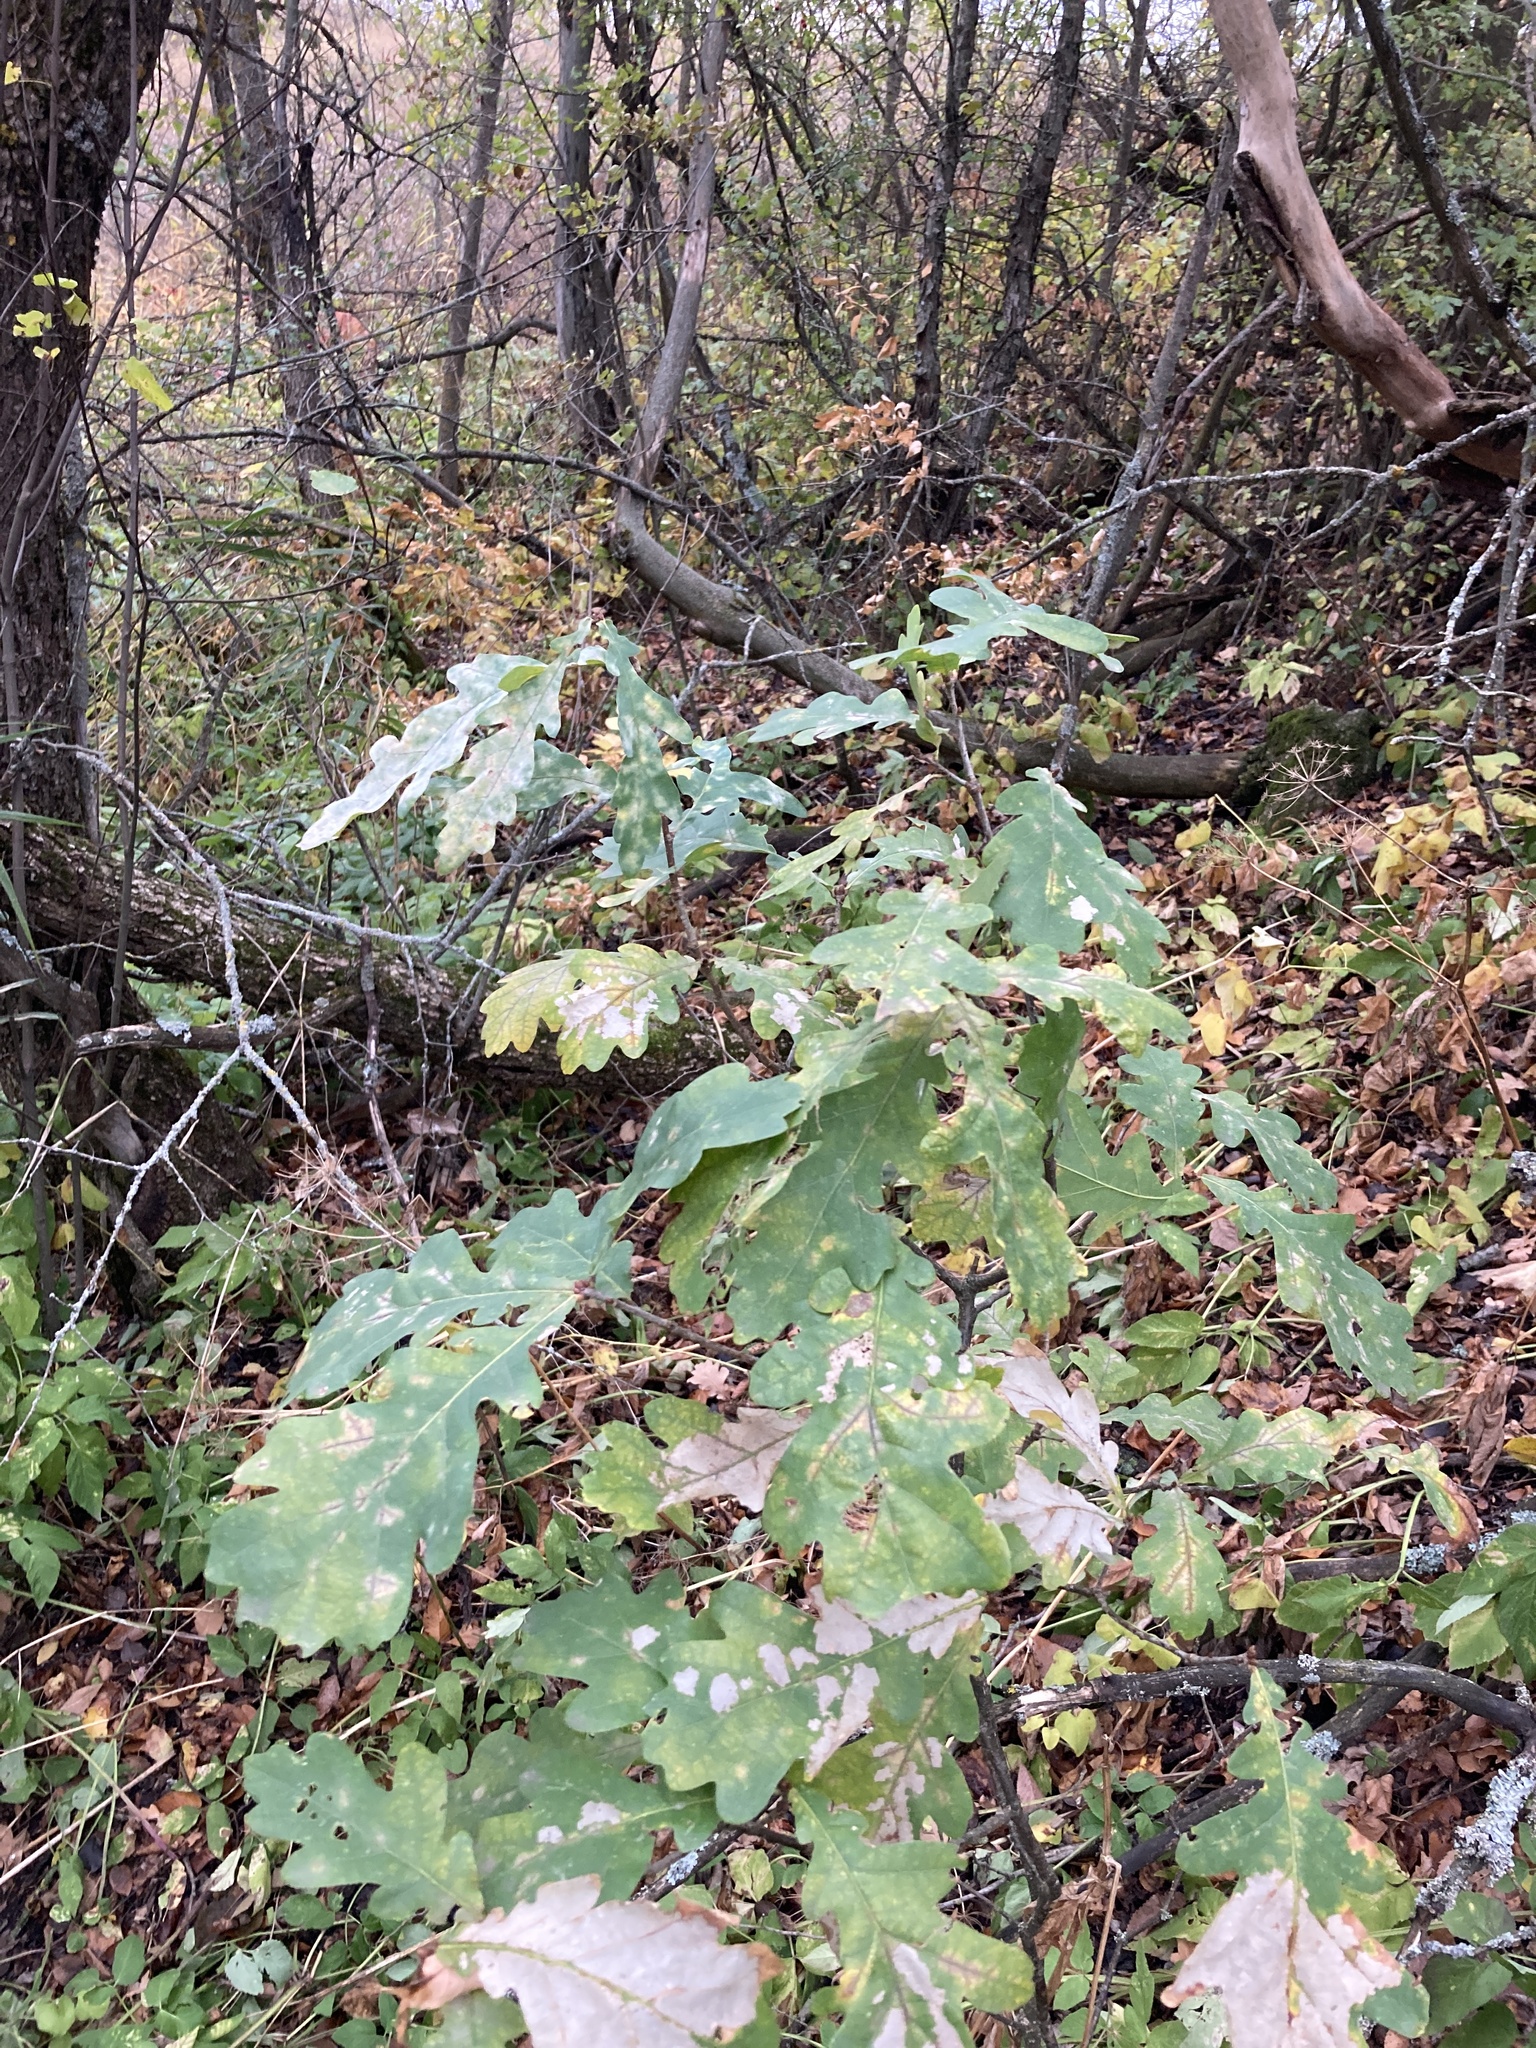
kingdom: Plantae
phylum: Tracheophyta
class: Magnoliopsida
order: Fagales
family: Fagaceae
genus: Quercus
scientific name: Quercus robur
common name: Pedunculate oak
